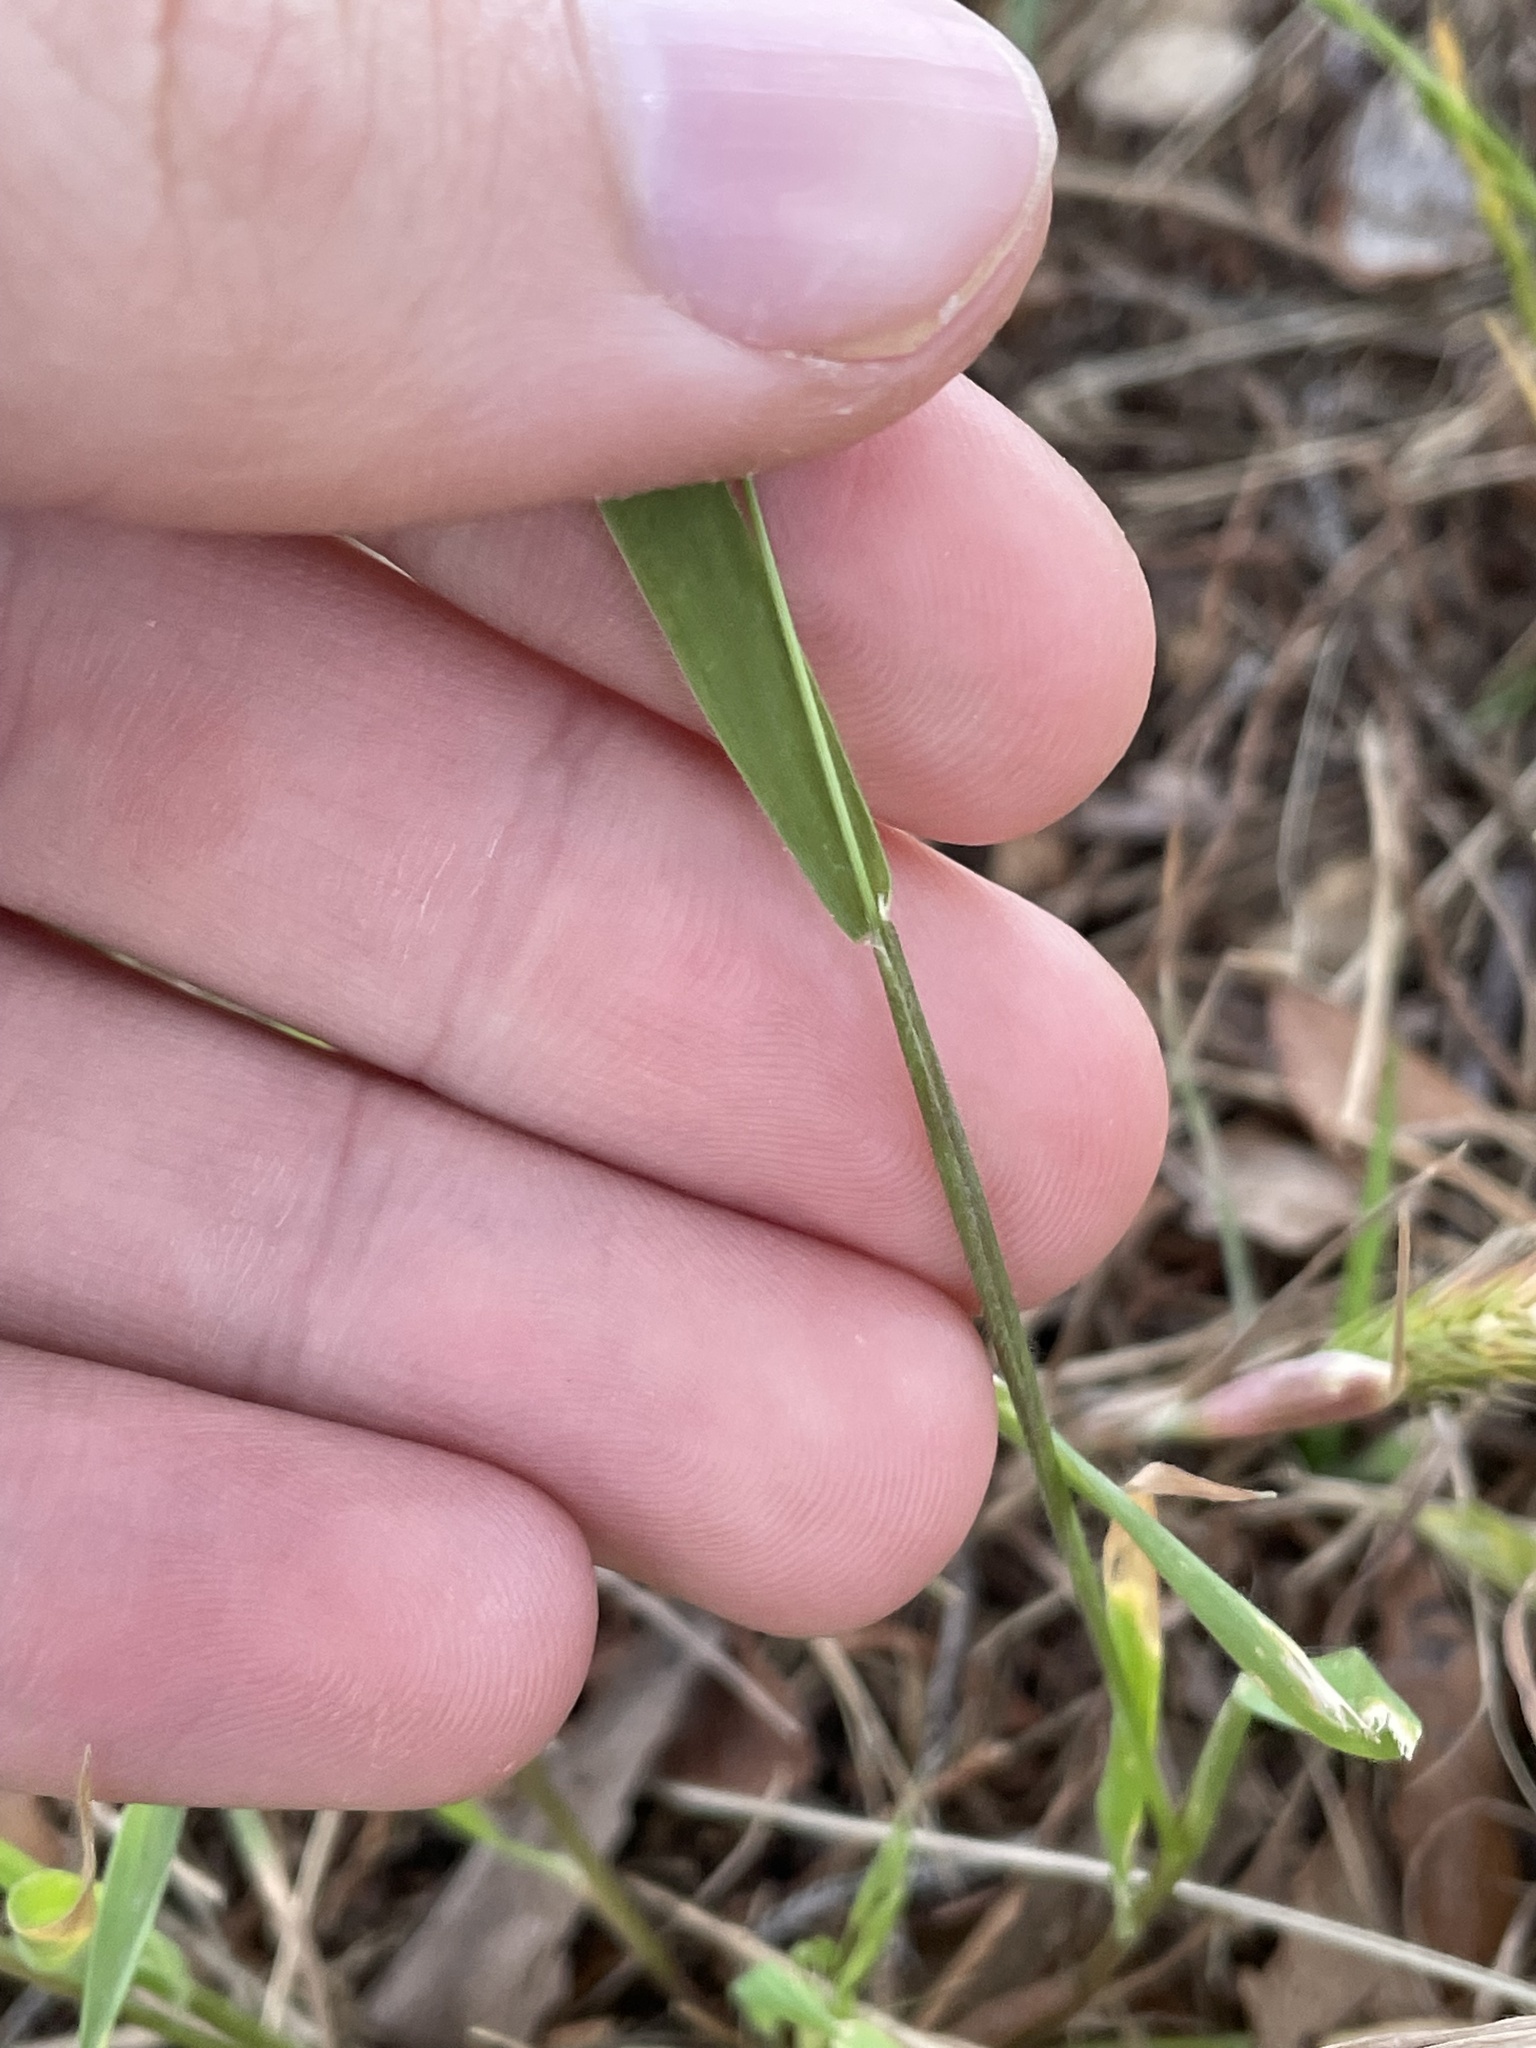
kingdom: Plantae
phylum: Tracheophyta
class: Liliopsida
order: Poales
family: Poaceae
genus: Limnodea
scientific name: Limnodea arkansana
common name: Ozark-grass
